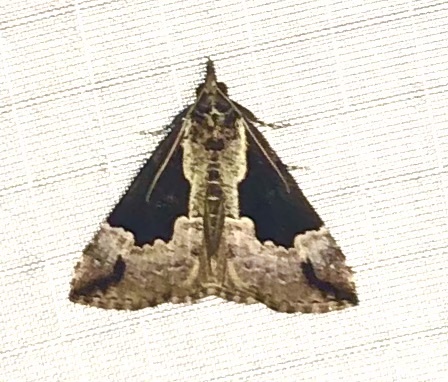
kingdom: Animalia
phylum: Arthropoda
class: Insecta
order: Lepidoptera
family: Erebidae
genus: Hypena
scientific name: Hypena baltimoralis
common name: Baltimore snout
